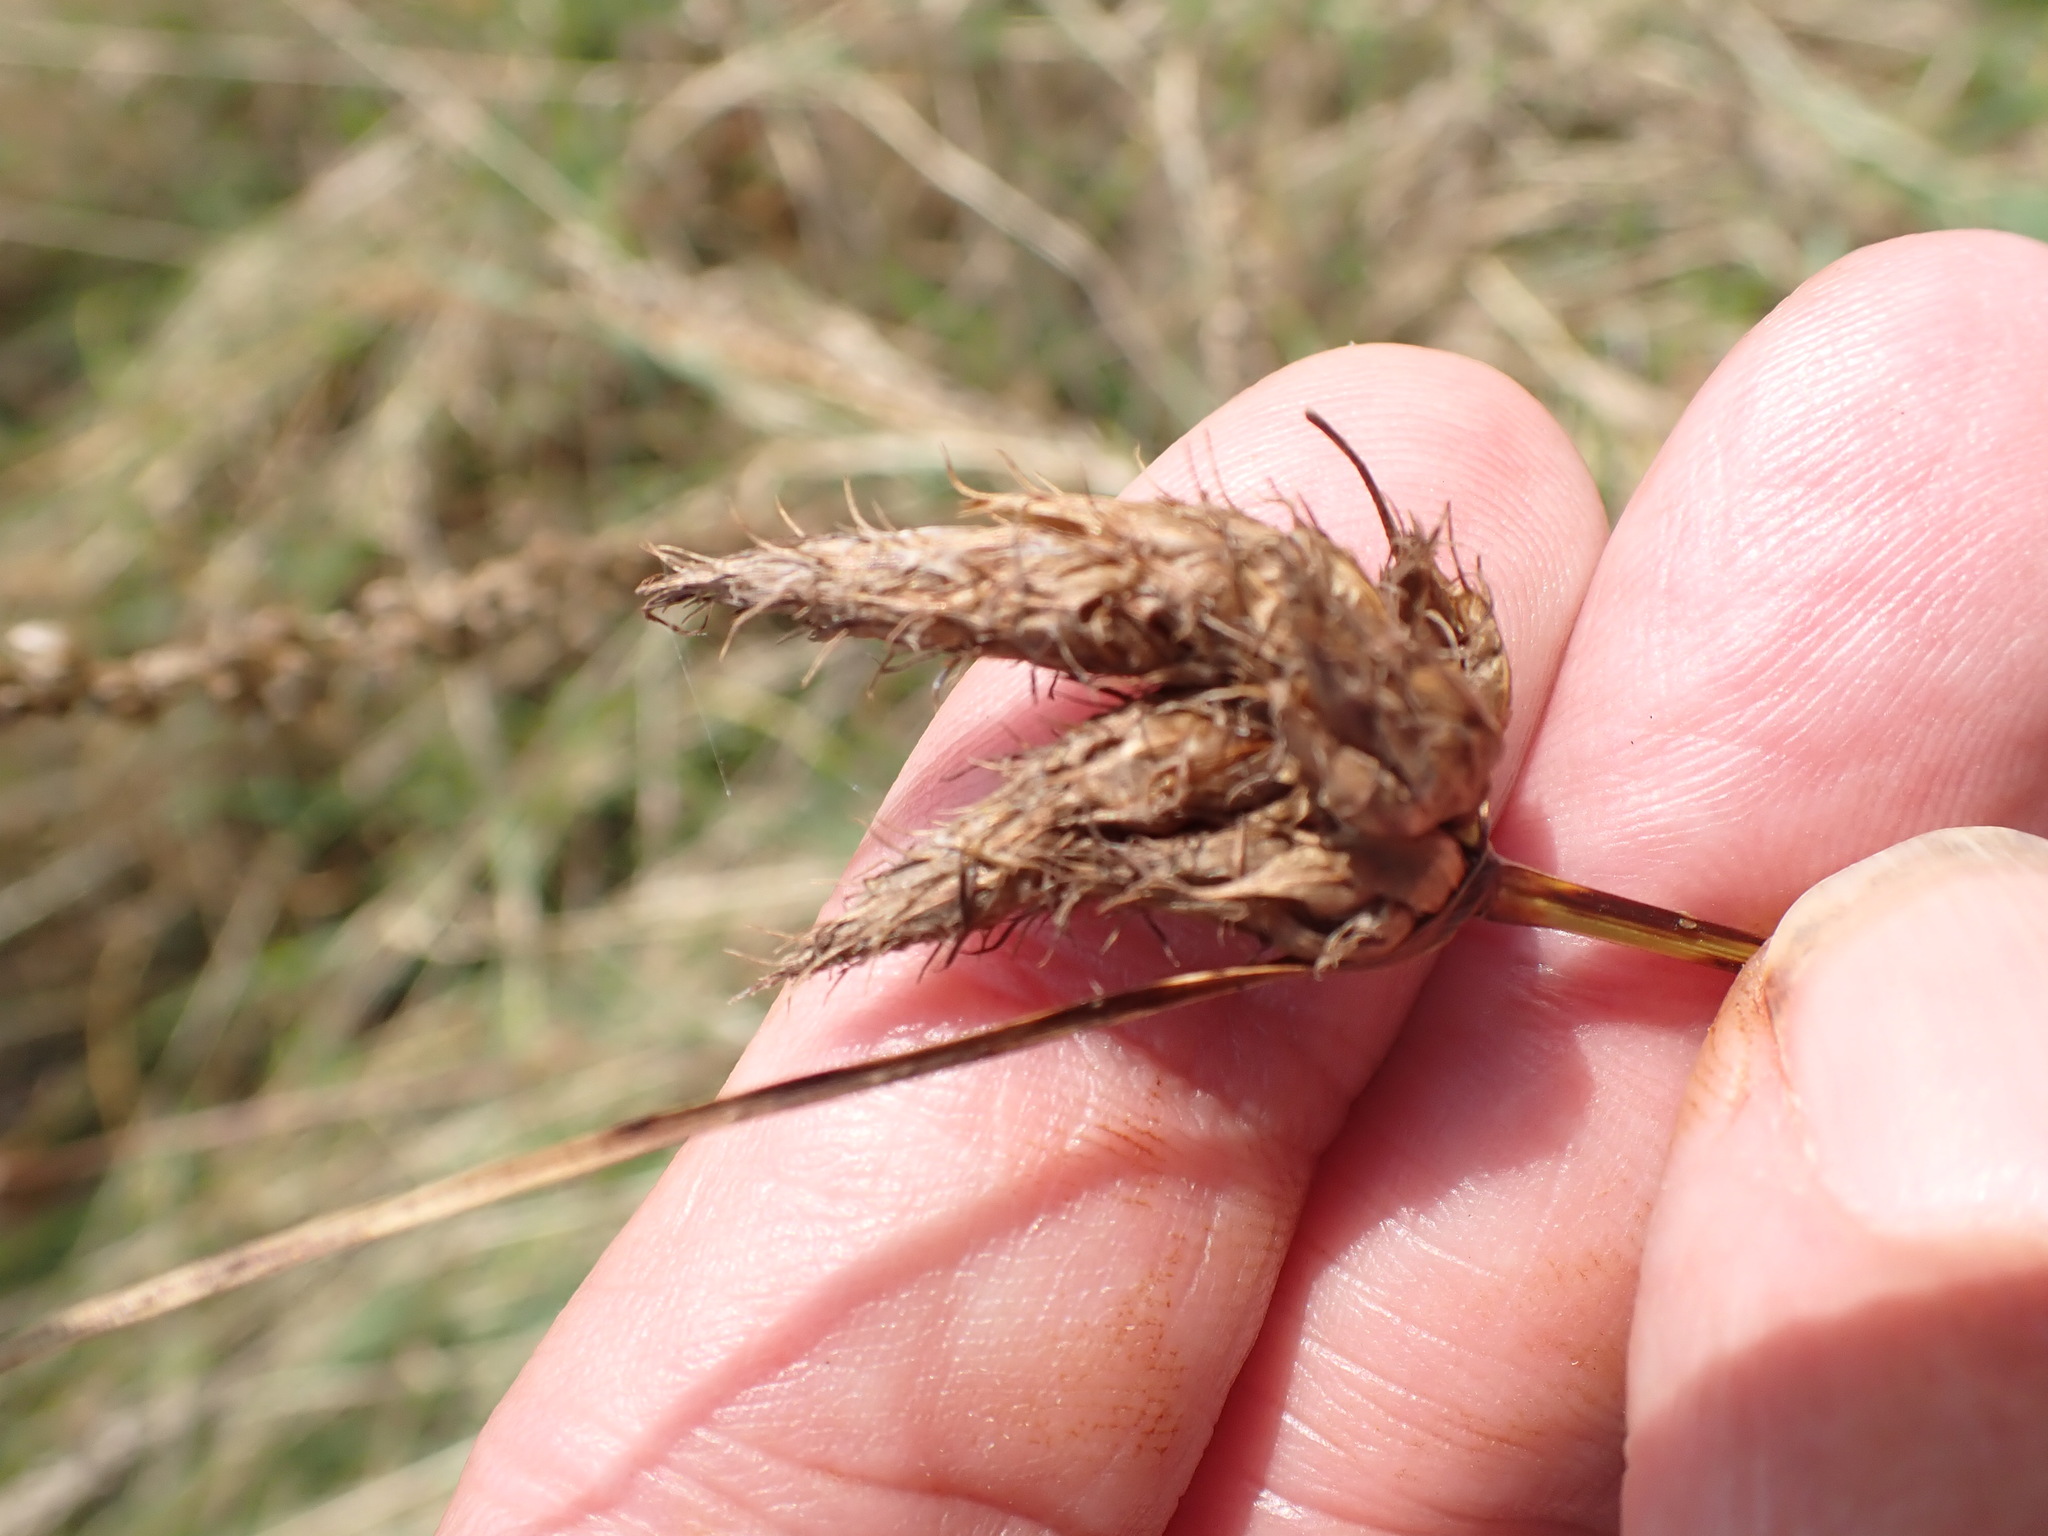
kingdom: Plantae
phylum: Tracheophyta
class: Liliopsida
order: Poales
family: Cyperaceae
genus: Bolboschoenus
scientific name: Bolboschoenus maritimus
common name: Sea club-rush
